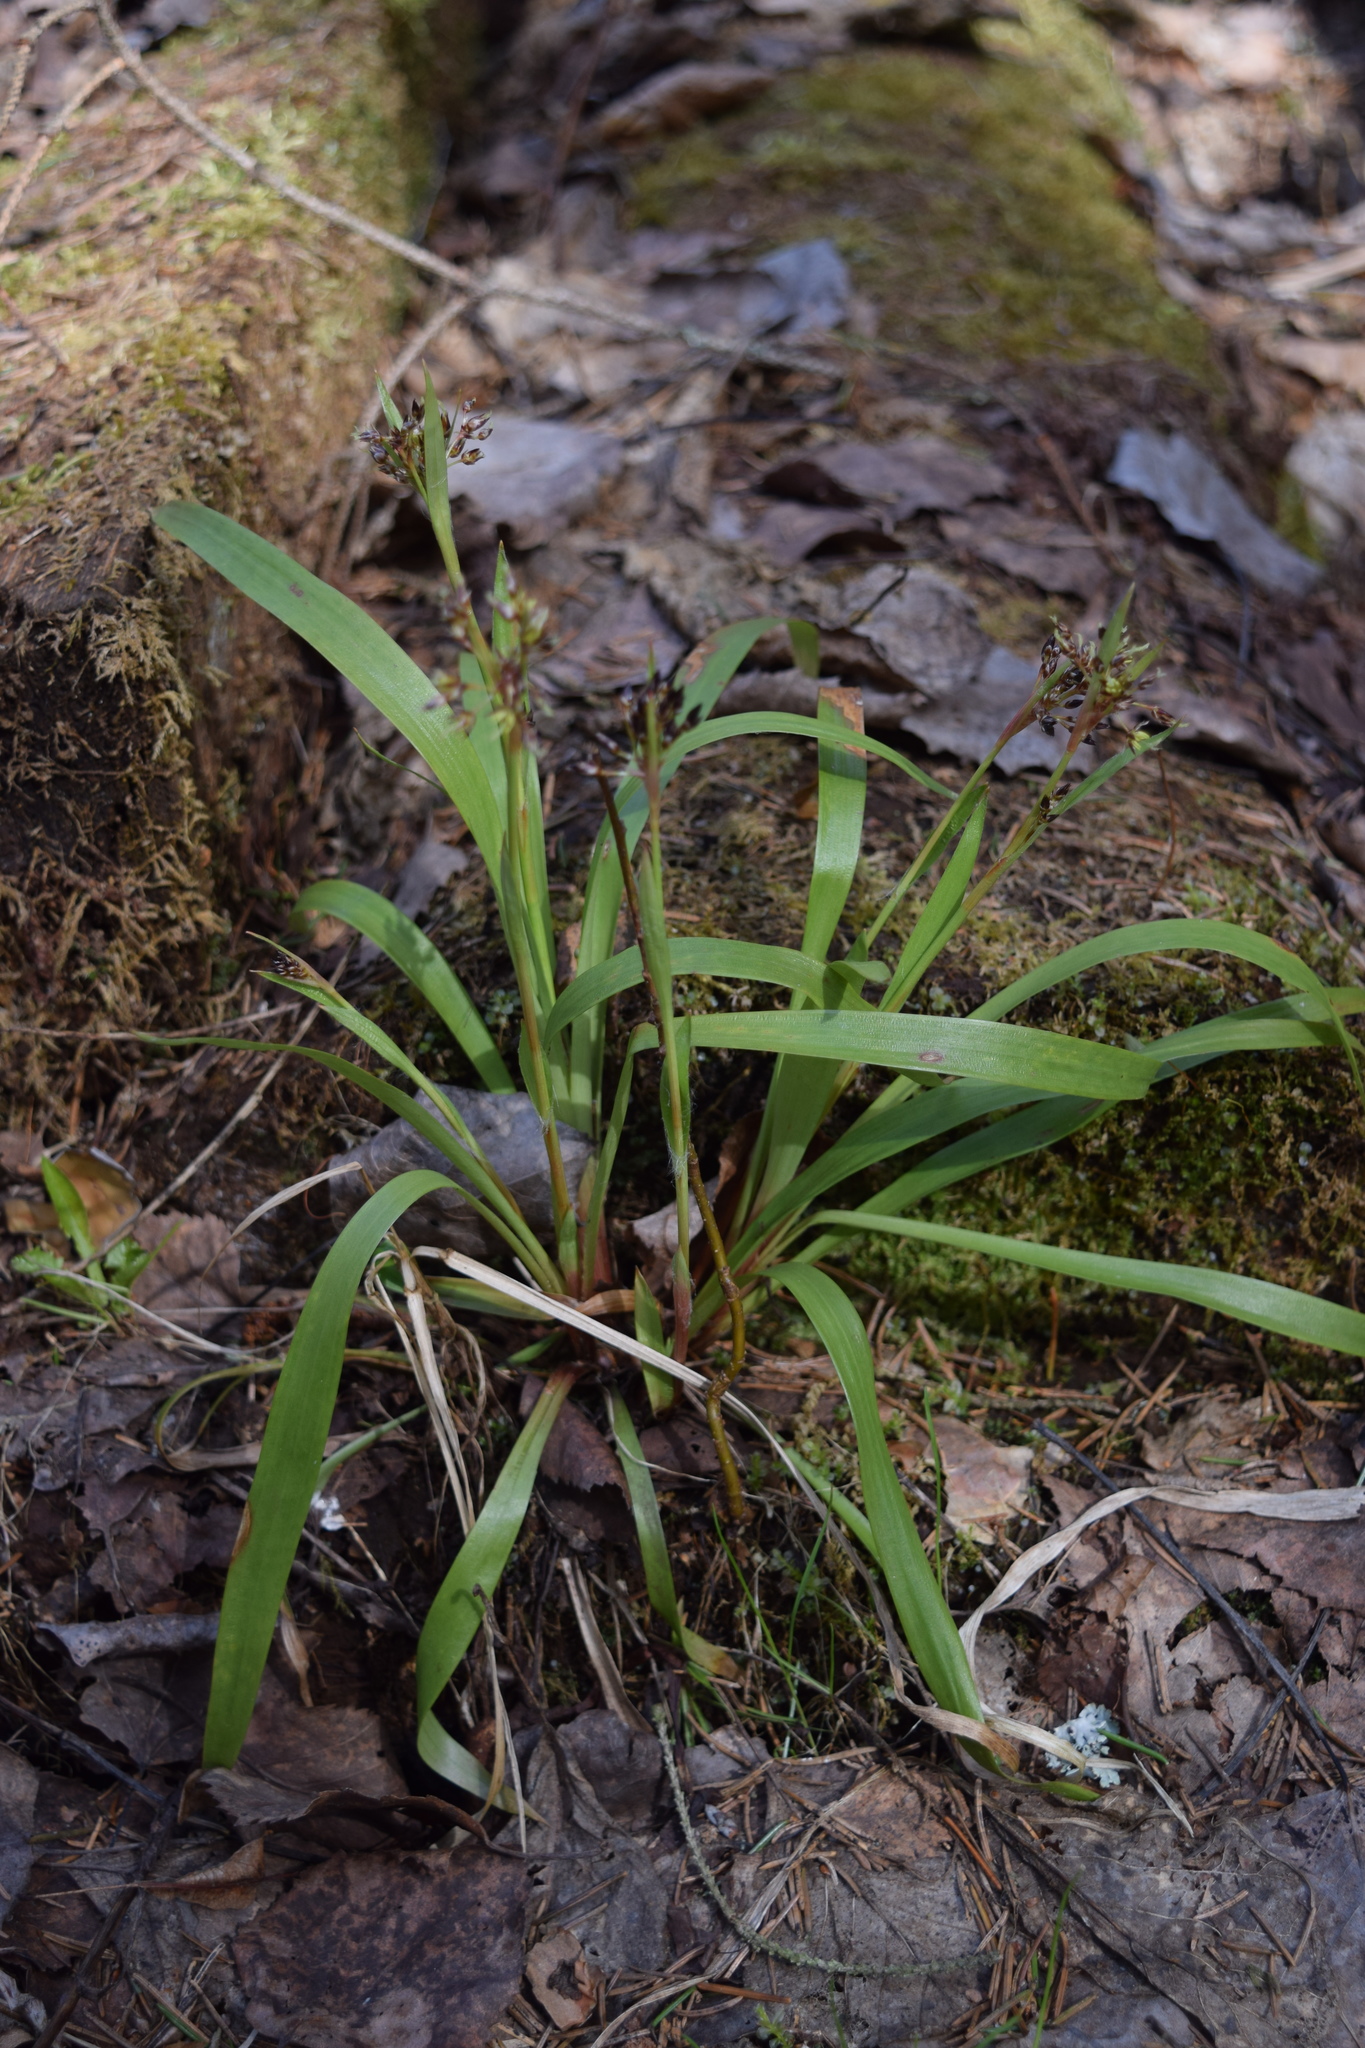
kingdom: Plantae
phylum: Tracheophyta
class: Liliopsida
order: Poales
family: Juncaceae
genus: Luzula
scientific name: Luzula pilosa
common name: Hairy wood-rush
